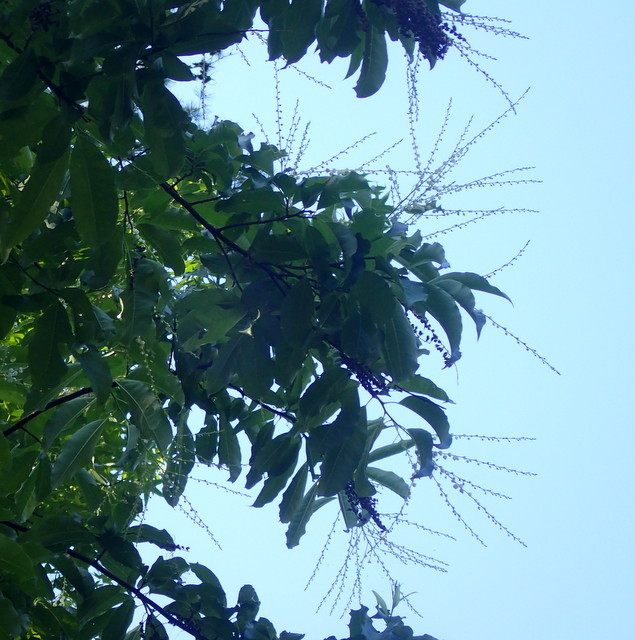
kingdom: Plantae
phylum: Tracheophyta
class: Magnoliopsida
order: Ericales
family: Ericaceae
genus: Oxydendrum
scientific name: Oxydendrum arboreum
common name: Sourwood
